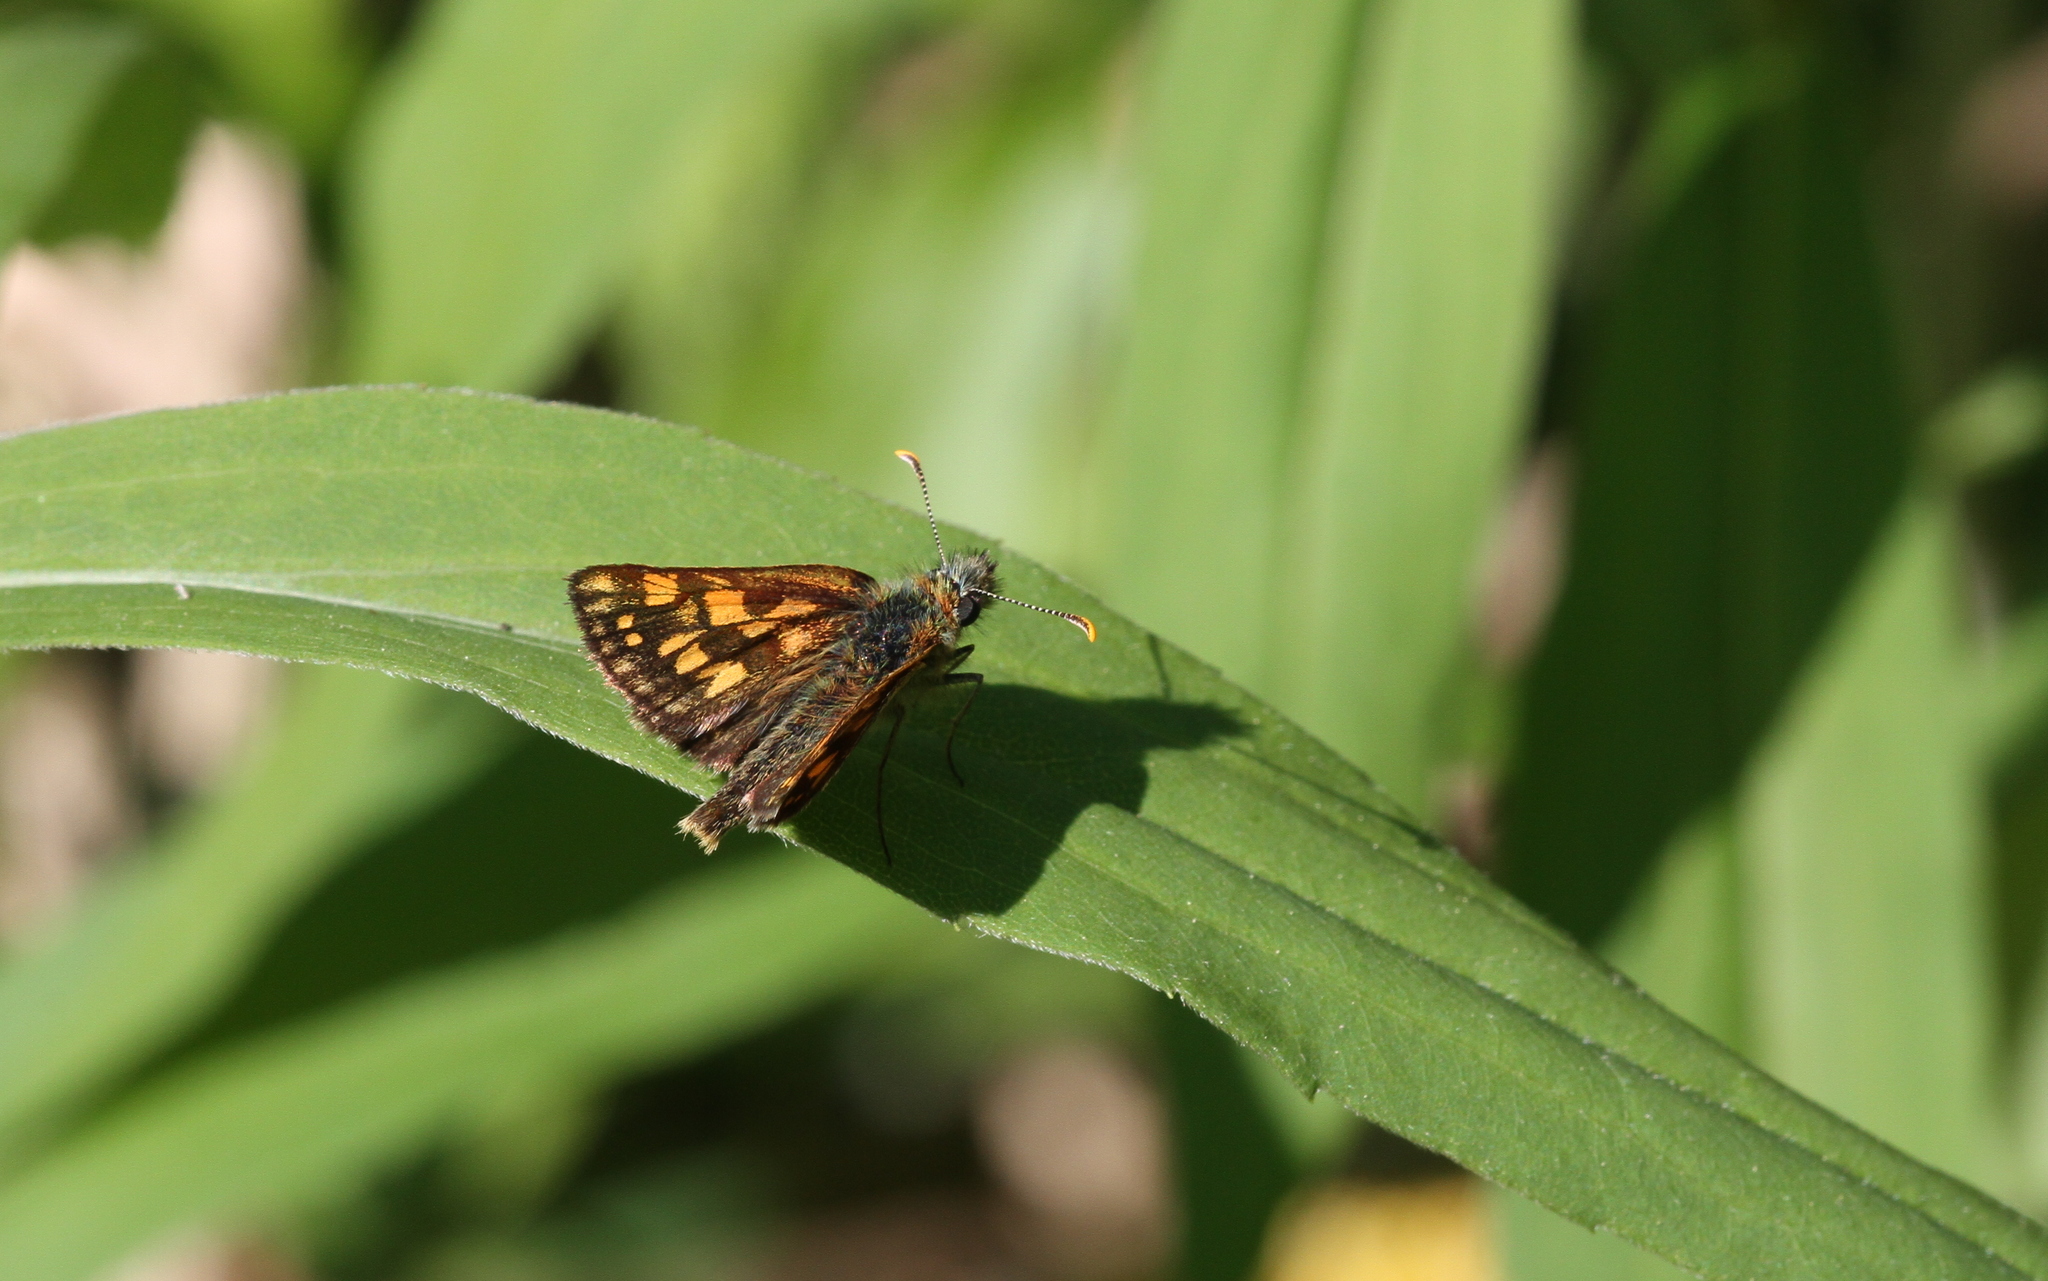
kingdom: Animalia
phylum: Arthropoda
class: Insecta
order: Lepidoptera
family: Hesperiidae
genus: Carterocephalus
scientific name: Carterocephalus palaemon
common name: Chequered skipper
